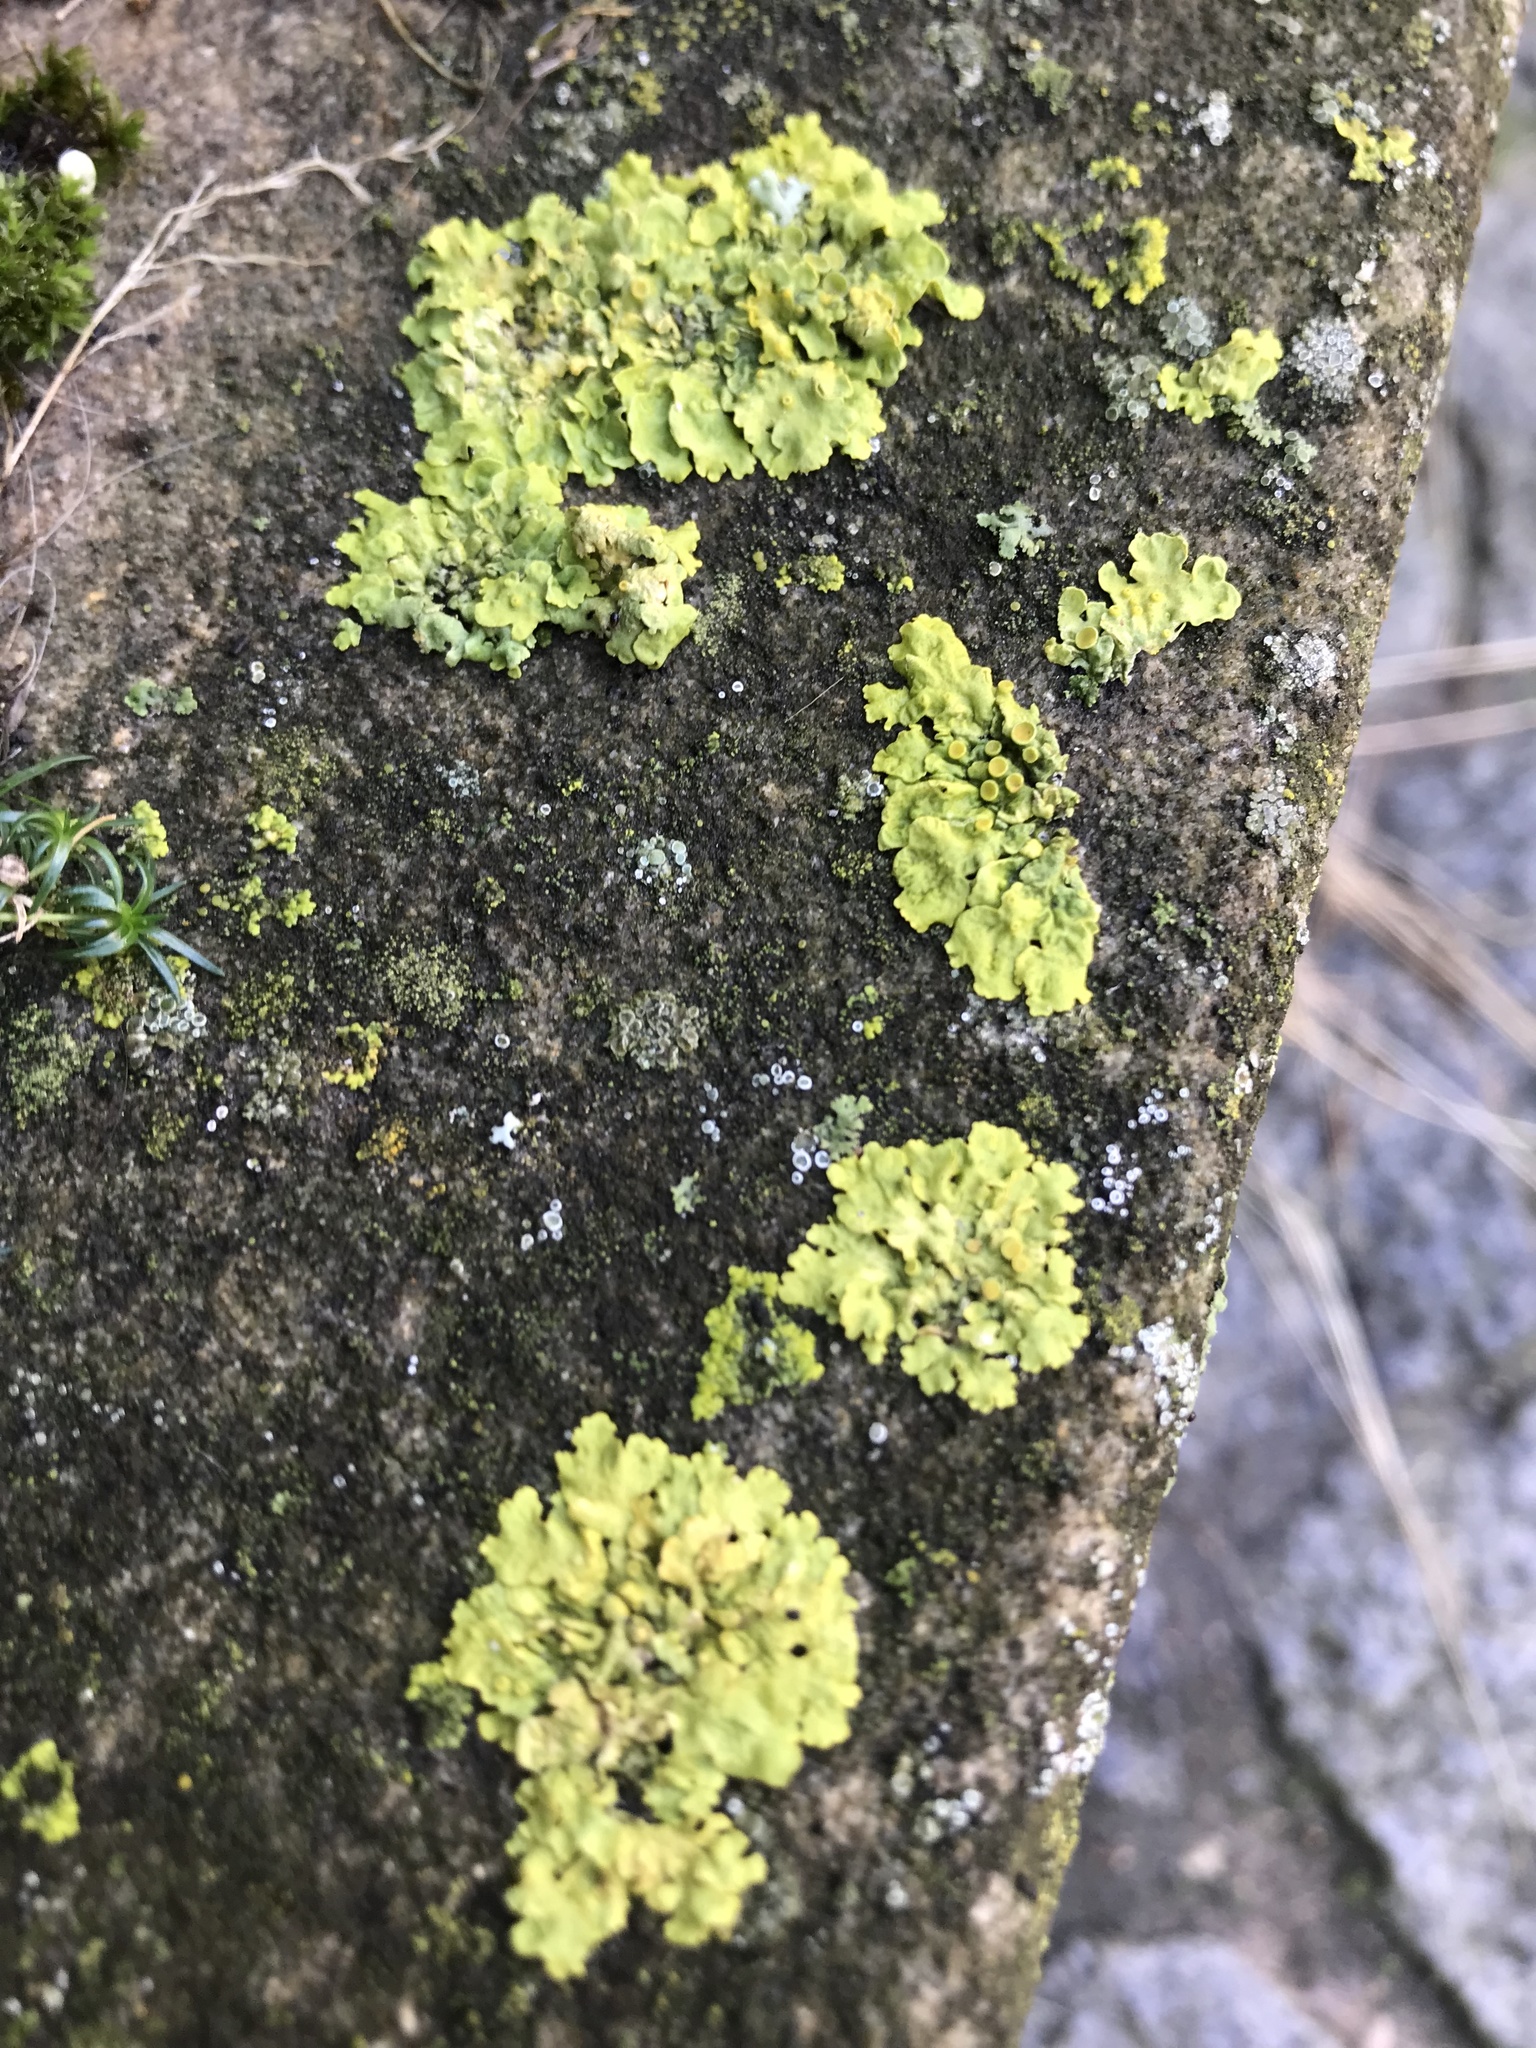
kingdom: Fungi
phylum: Ascomycota
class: Lecanoromycetes
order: Teloschistales
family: Teloschistaceae
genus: Xanthoria
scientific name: Xanthoria parietina
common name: Common orange lichen
